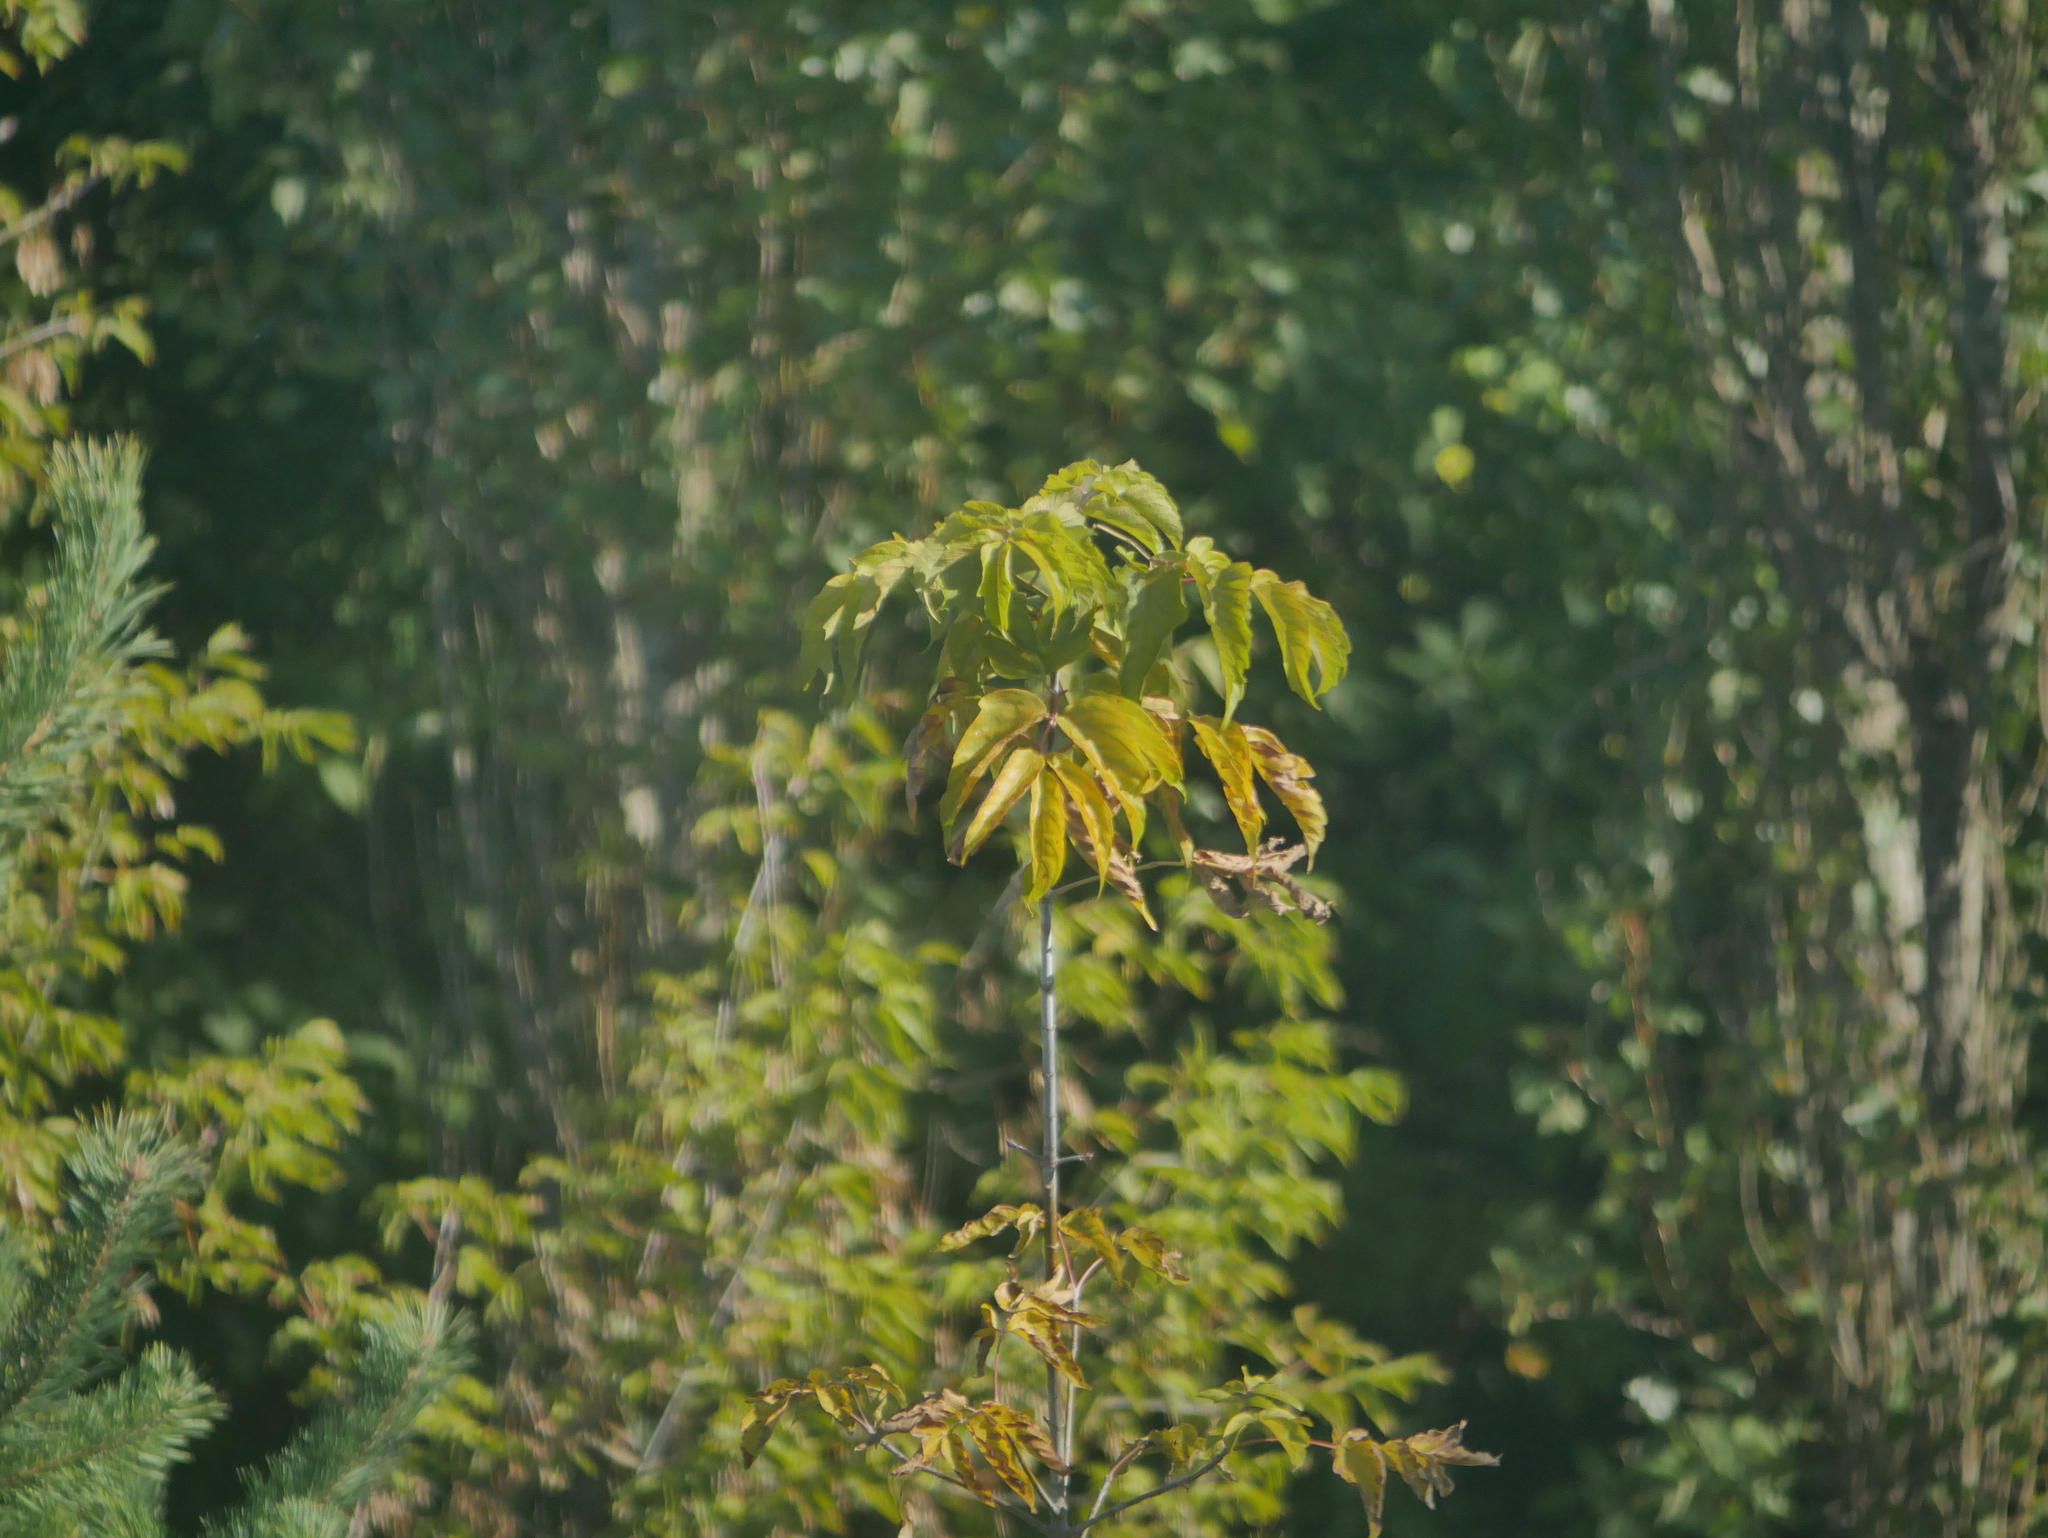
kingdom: Plantae
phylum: Tracheophyta
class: Magnoliopsida
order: Sapindales
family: Sapindaceae
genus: Acer
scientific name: Acer negundo
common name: Ashleaf maple
